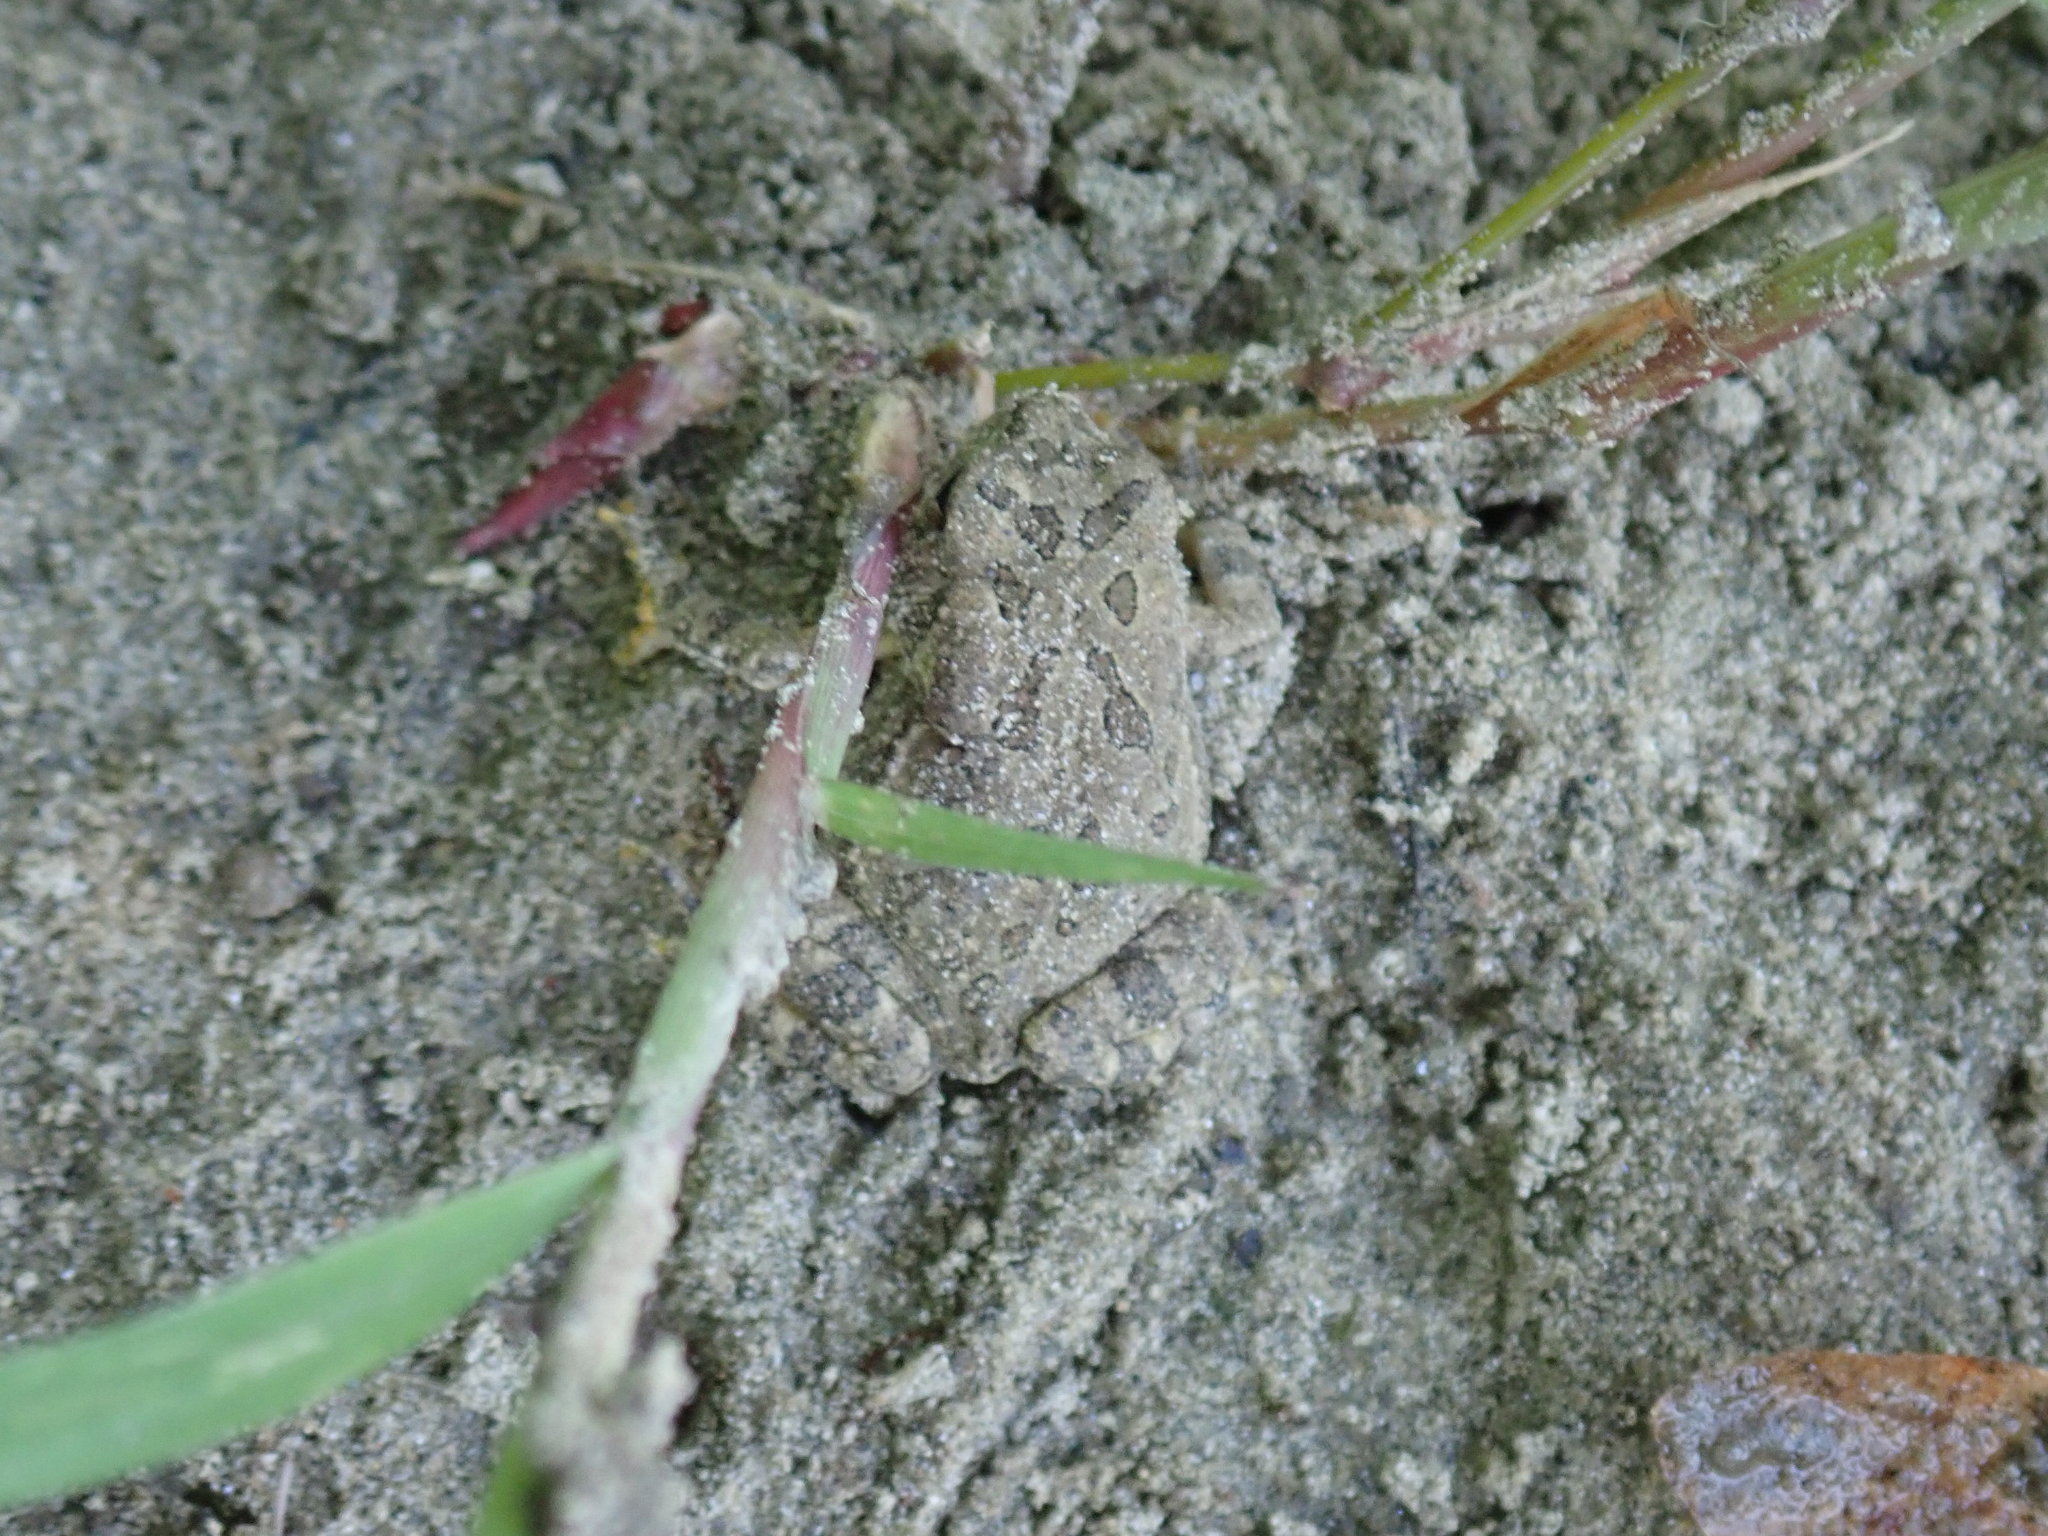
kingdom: Animalia
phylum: Chordata
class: Amphibia
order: Anura
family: Bufonidae
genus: Anaxyrus
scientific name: Anaxyrus fowleri
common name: Fowler's toad
